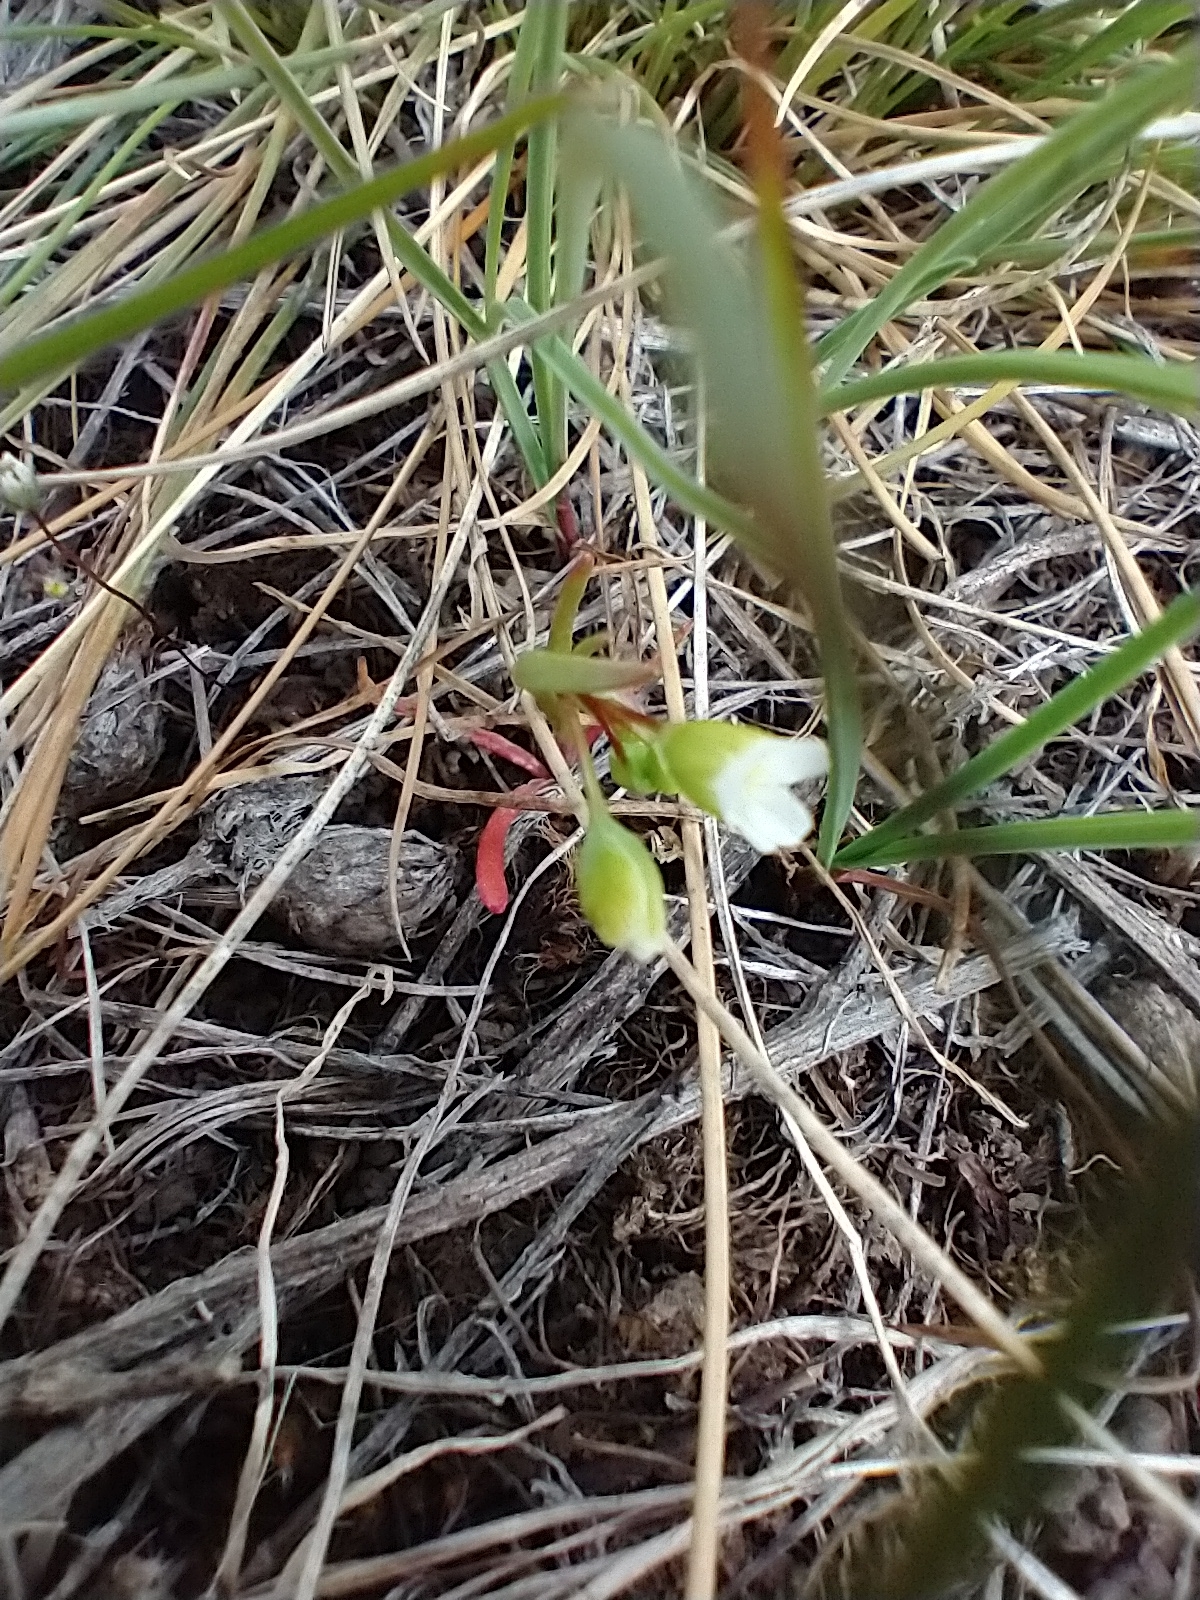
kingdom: Plantae
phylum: Tracheophyta
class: Magnoliopsida
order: Caryophyllales
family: Montiaceae
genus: Montia
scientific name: Montia linearis
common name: Narrow-leaf montia
